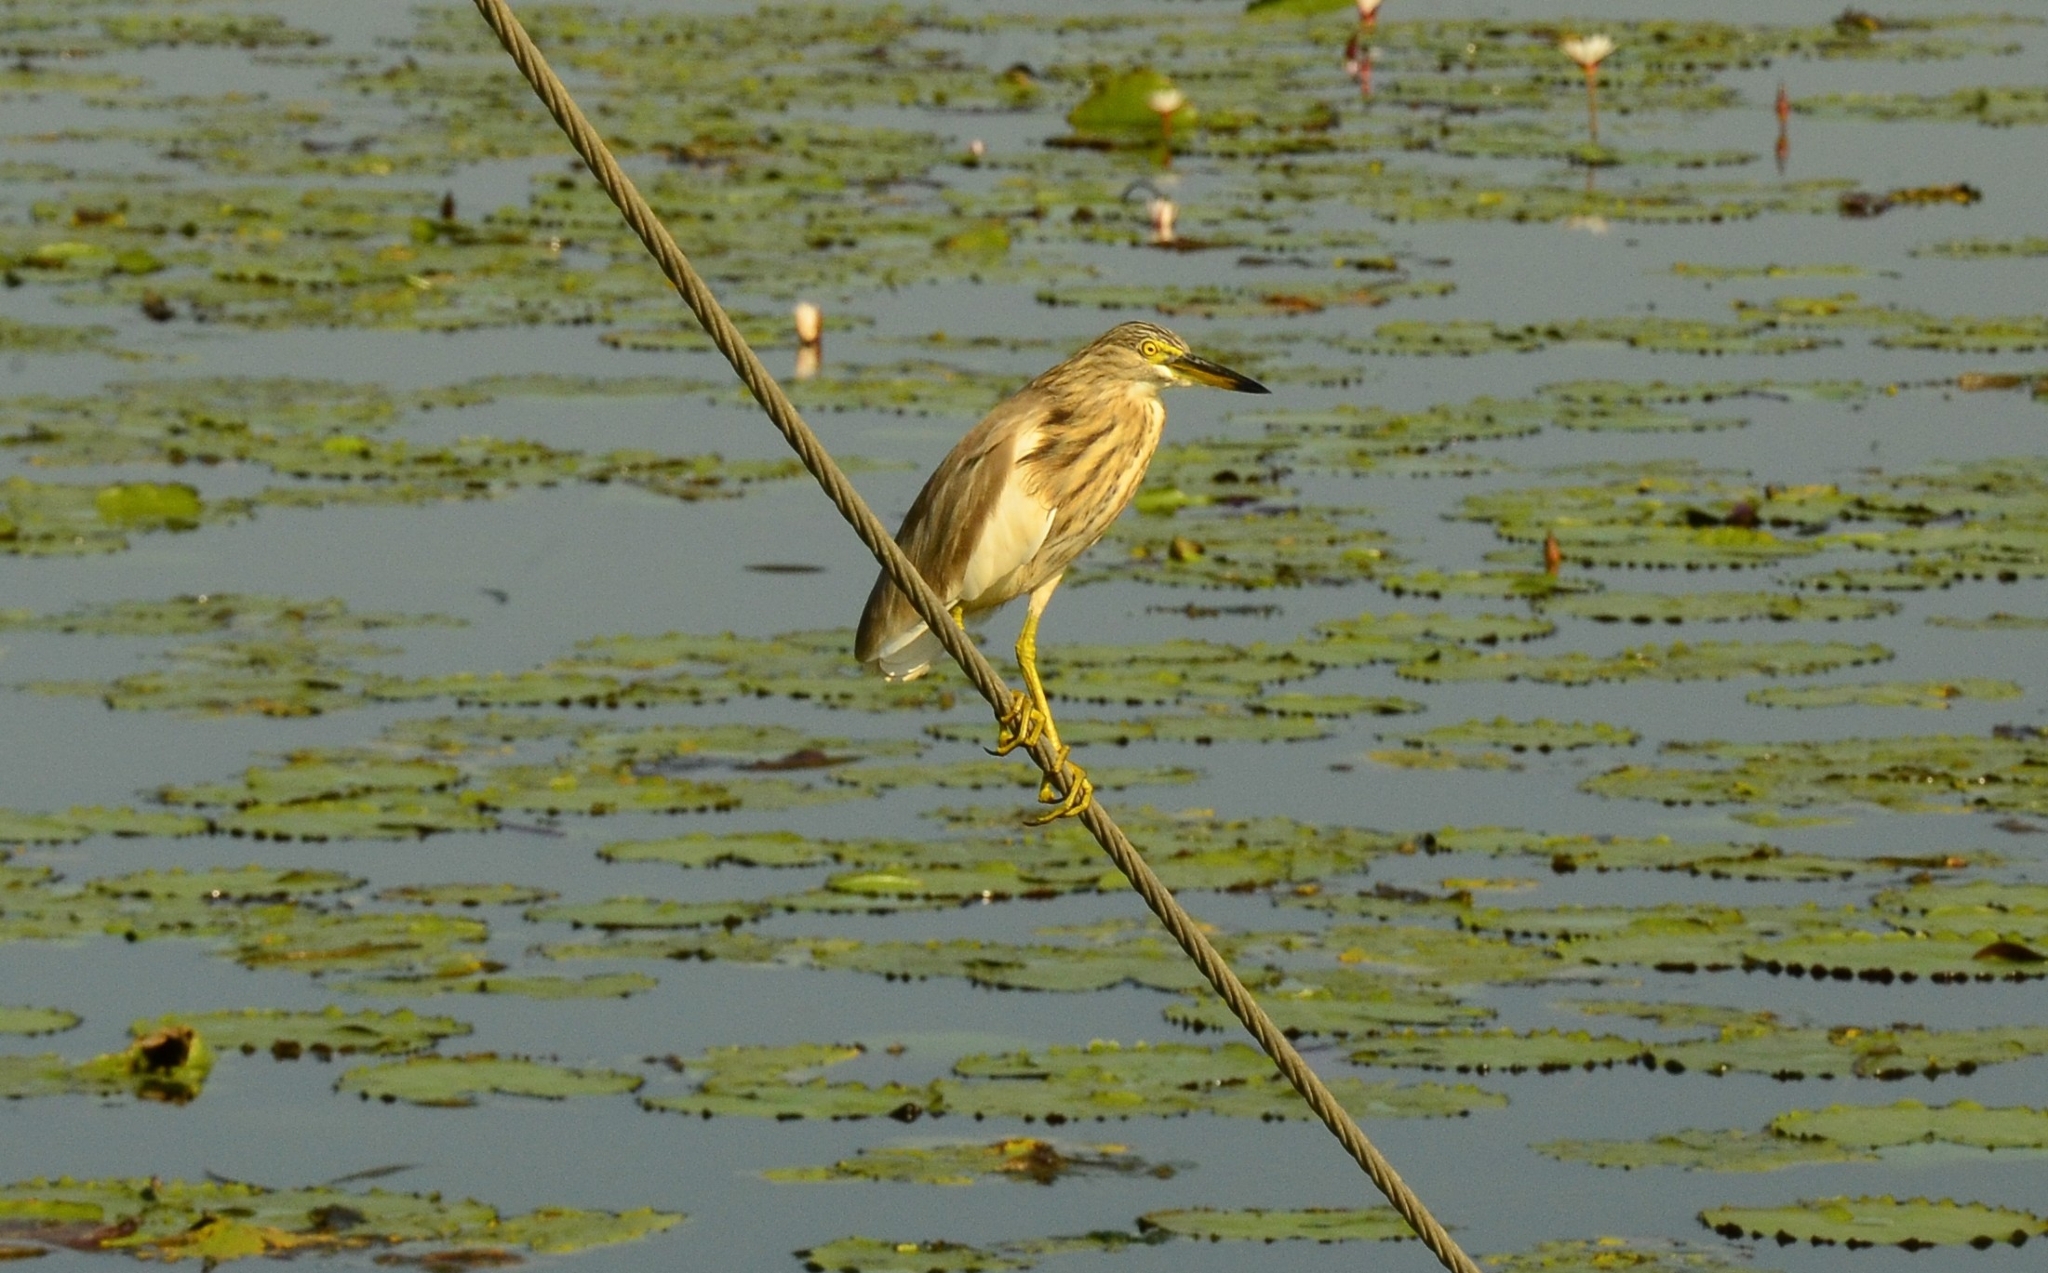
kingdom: Animalia
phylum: Chordata
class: Aves
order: Pelecaniformes
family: Ardeidae
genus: Ardeola
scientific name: Ardeola grayii
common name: Indian pond heron
